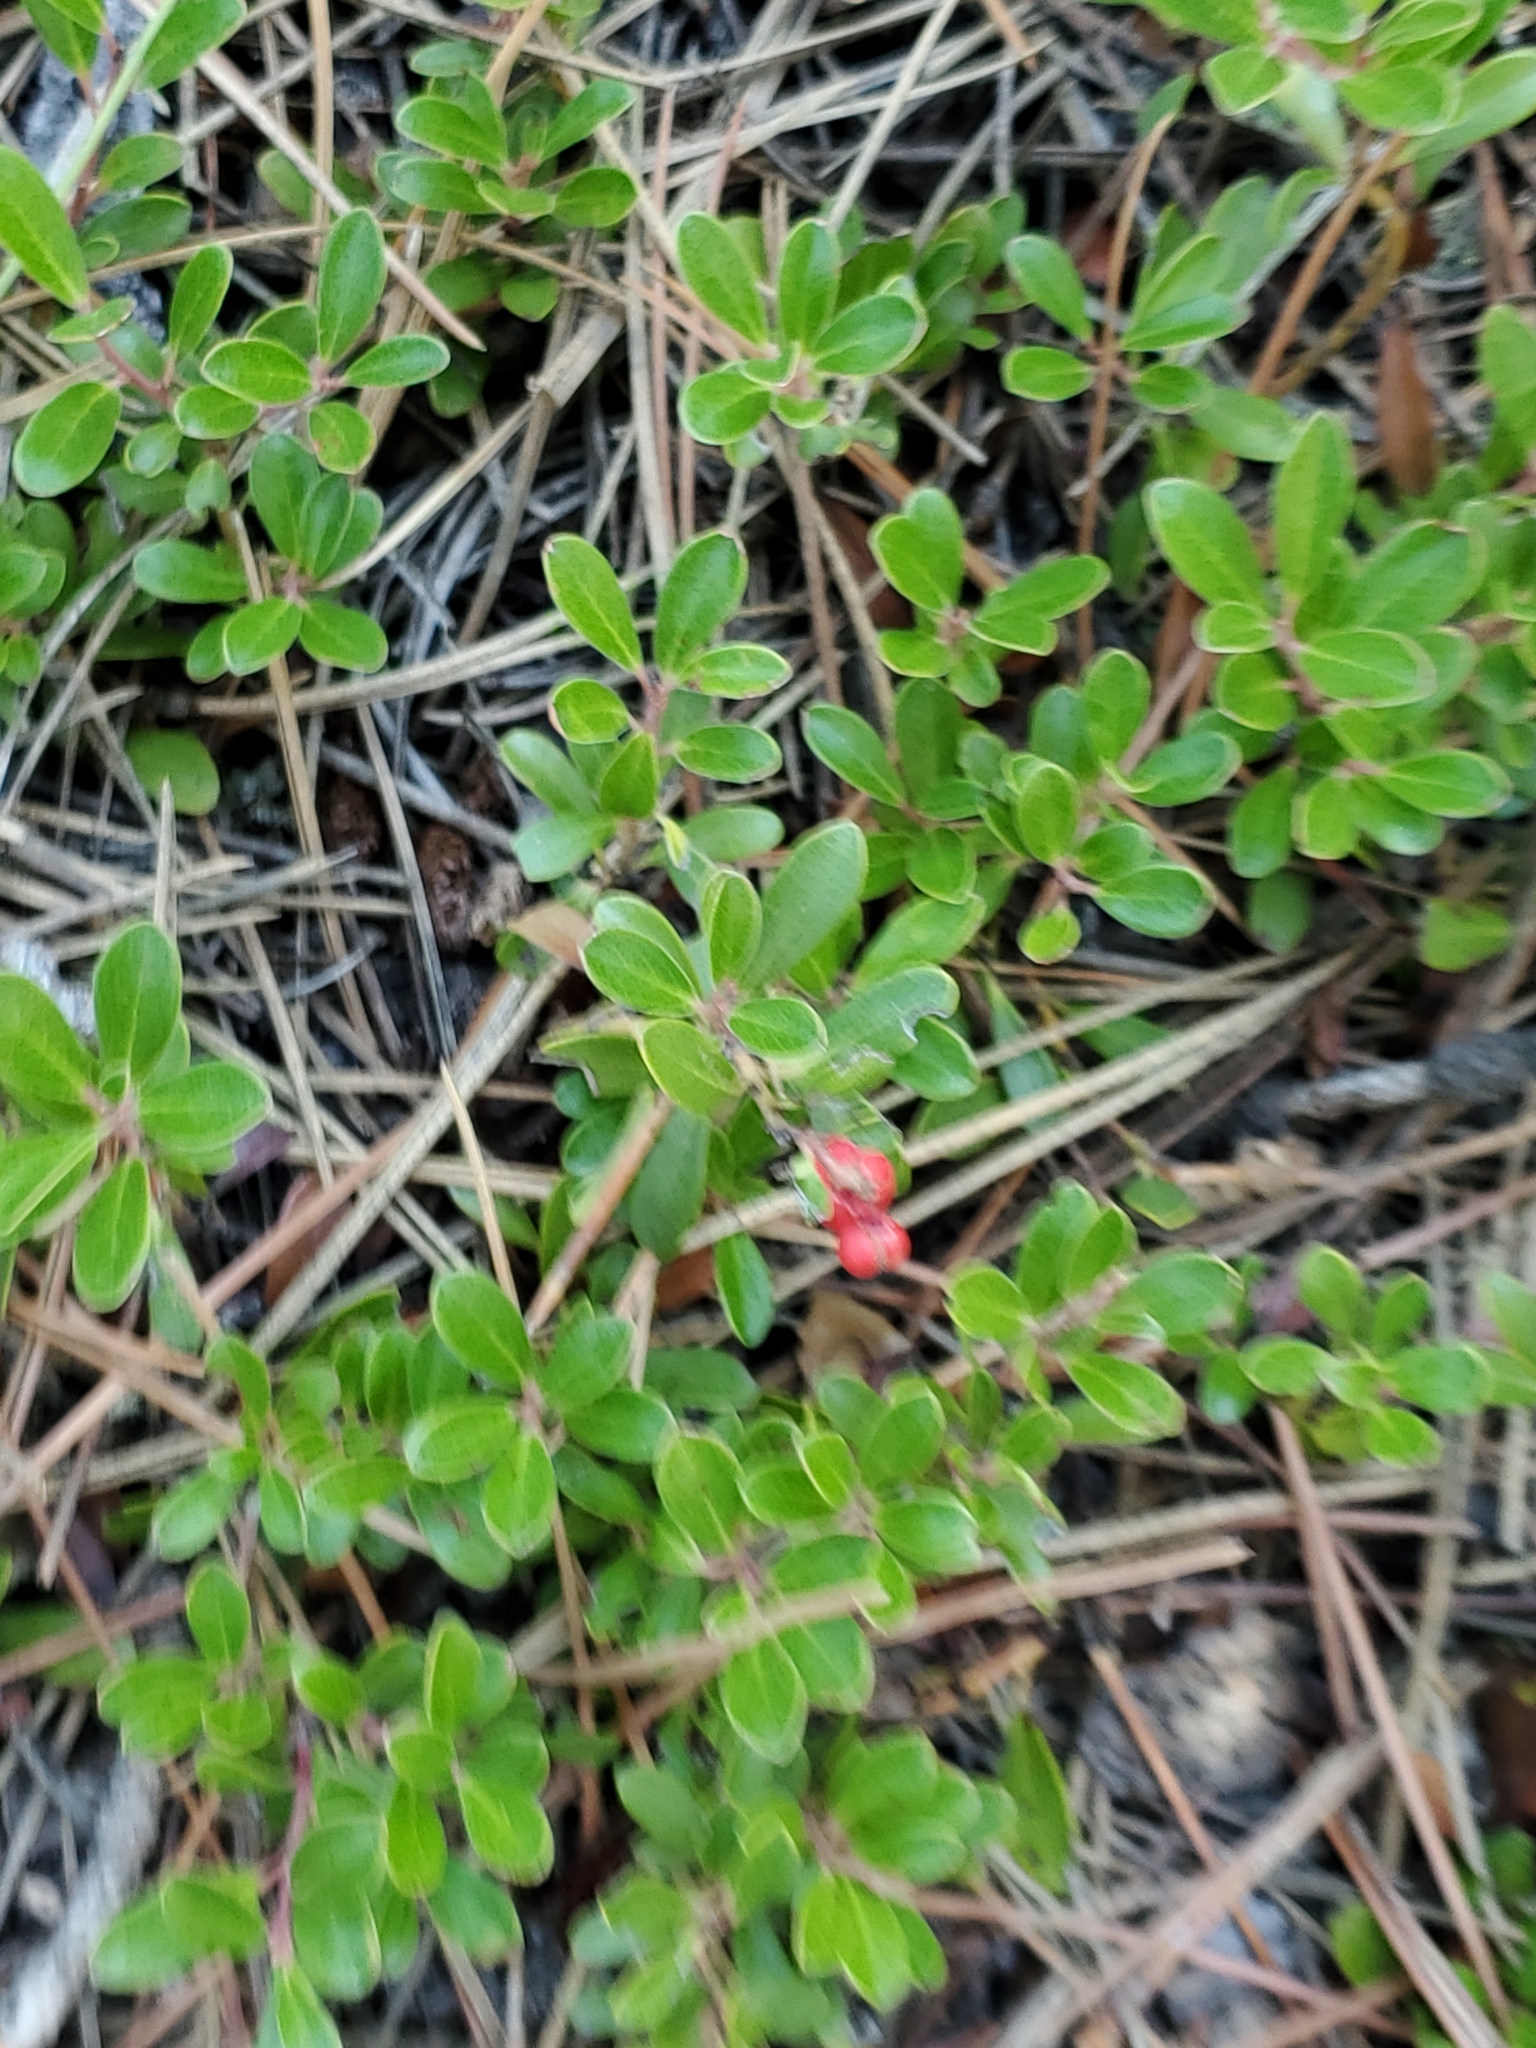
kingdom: Plantae
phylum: Tracheophyta
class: Magnoliopsida
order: Ericales
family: Ericaceae
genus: Arctostaphylos
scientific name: Arctostaphylos uva-ursi
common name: Bearberry
